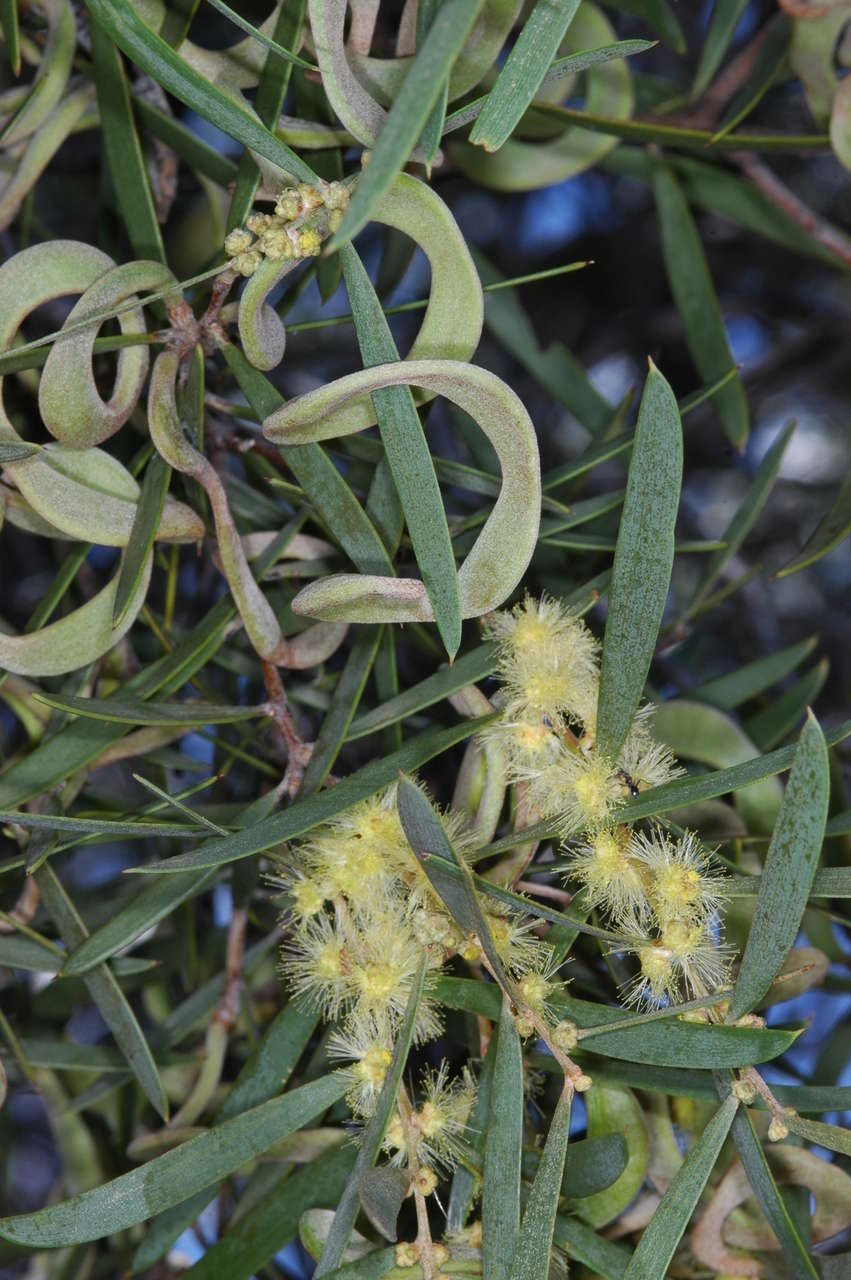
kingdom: Plantae
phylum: Tracheophyta
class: Magnoliopsida
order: Fabales
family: Fabaceae
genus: Acacia
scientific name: Acacia oswaldii
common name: Umbrella wattle
